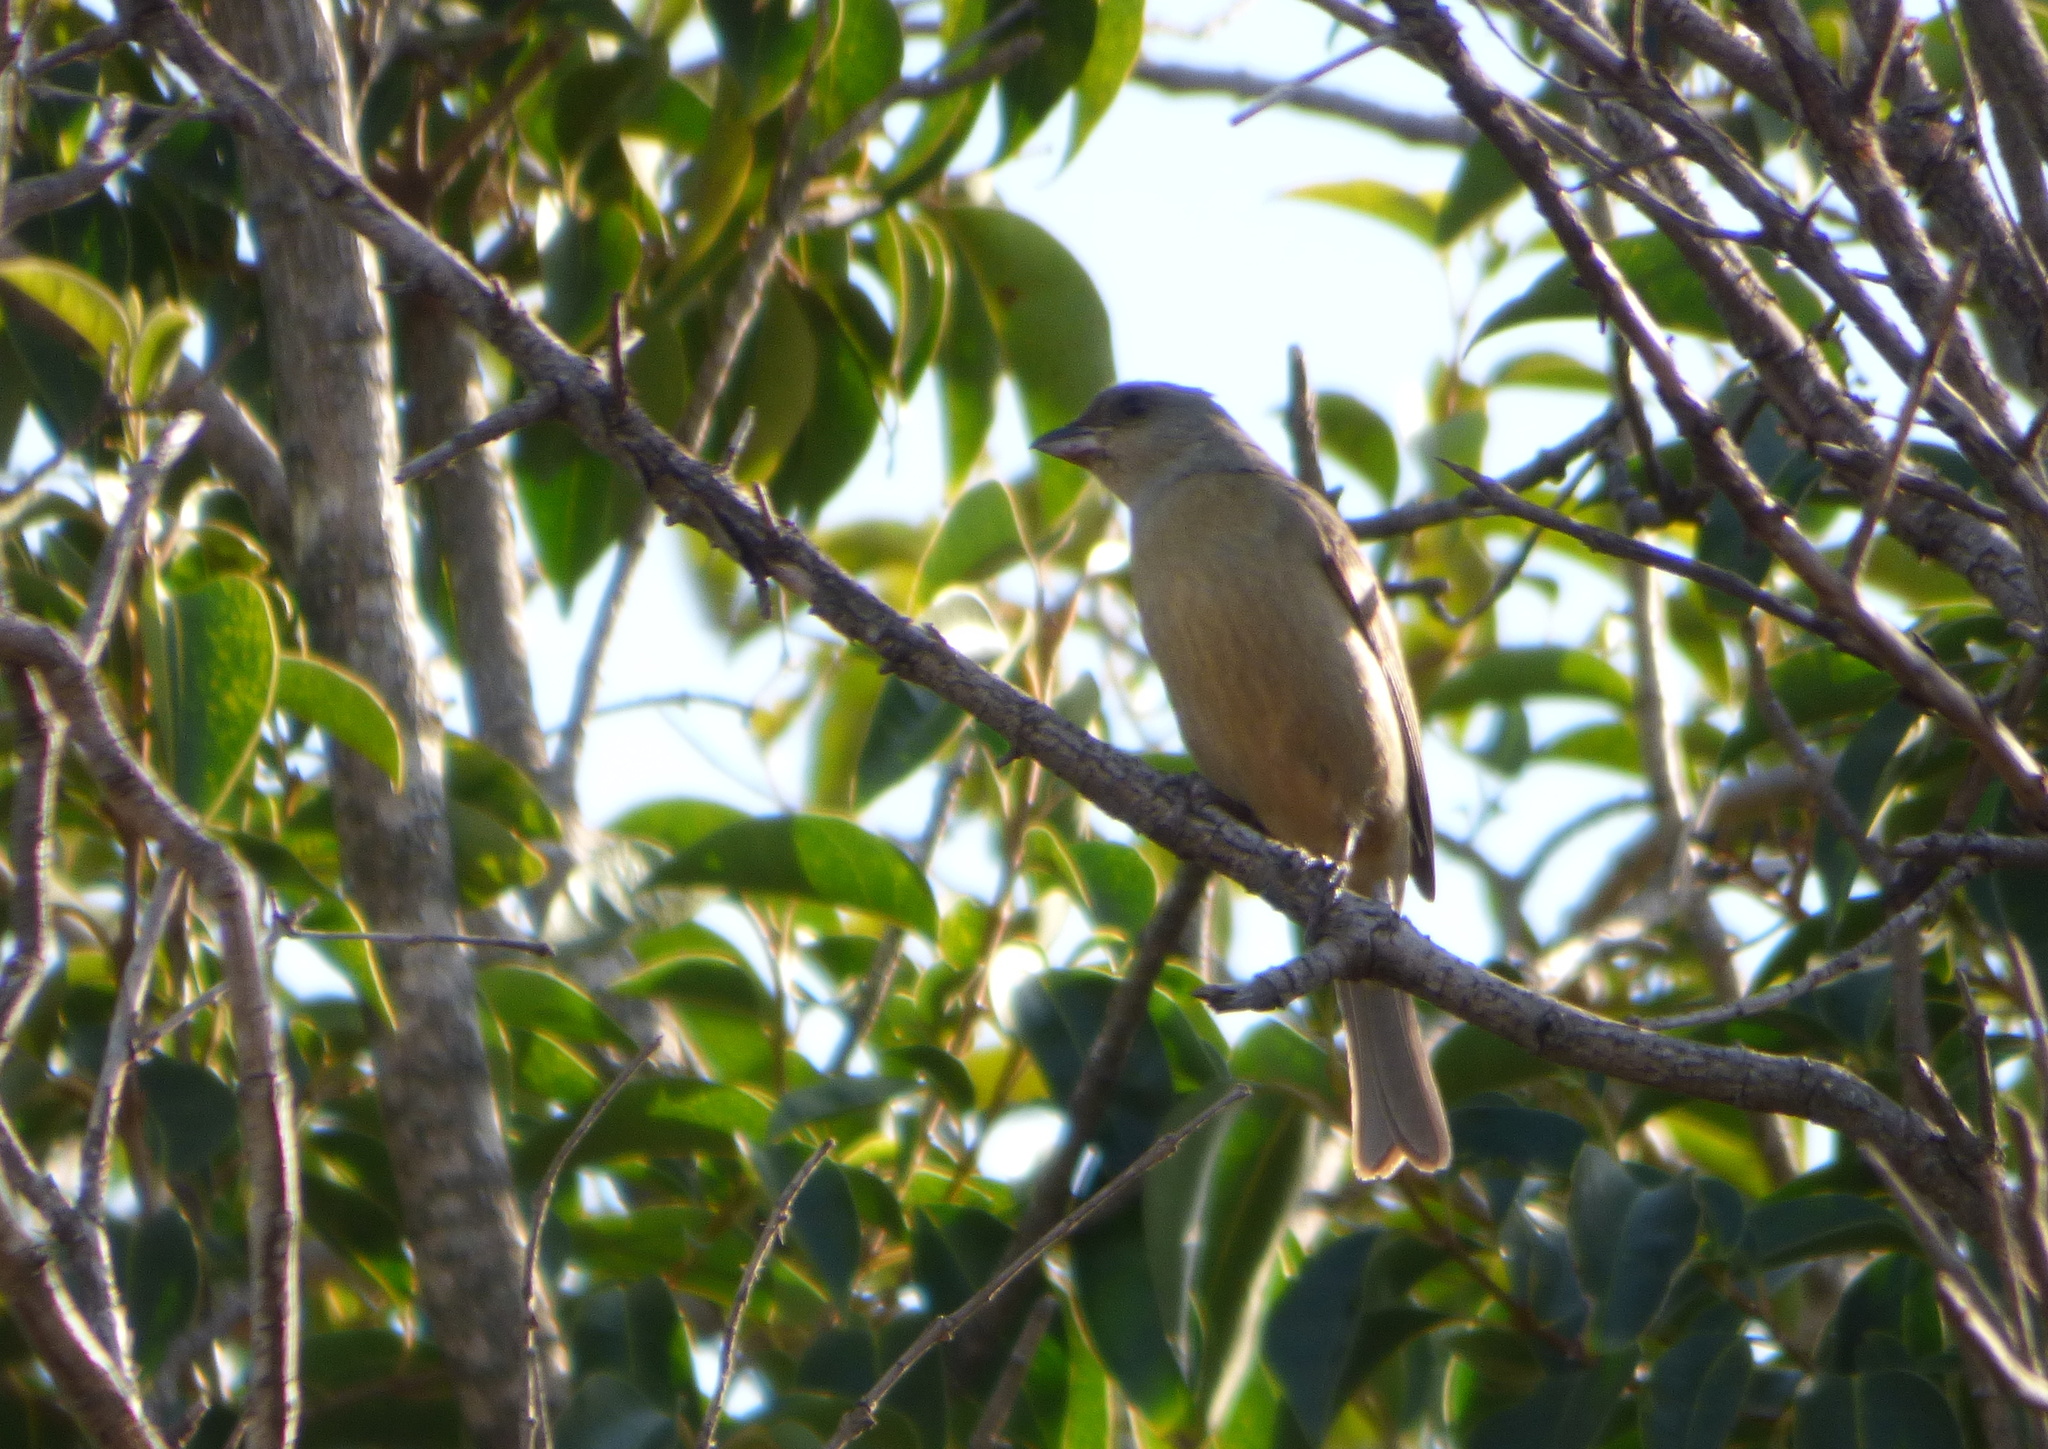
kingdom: Animalia
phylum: Chordata
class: Aves
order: Passeriformes
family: Thraupidae
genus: Rauenia
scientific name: Rauenia bonariensis
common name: Blue-and-yellow tanager
